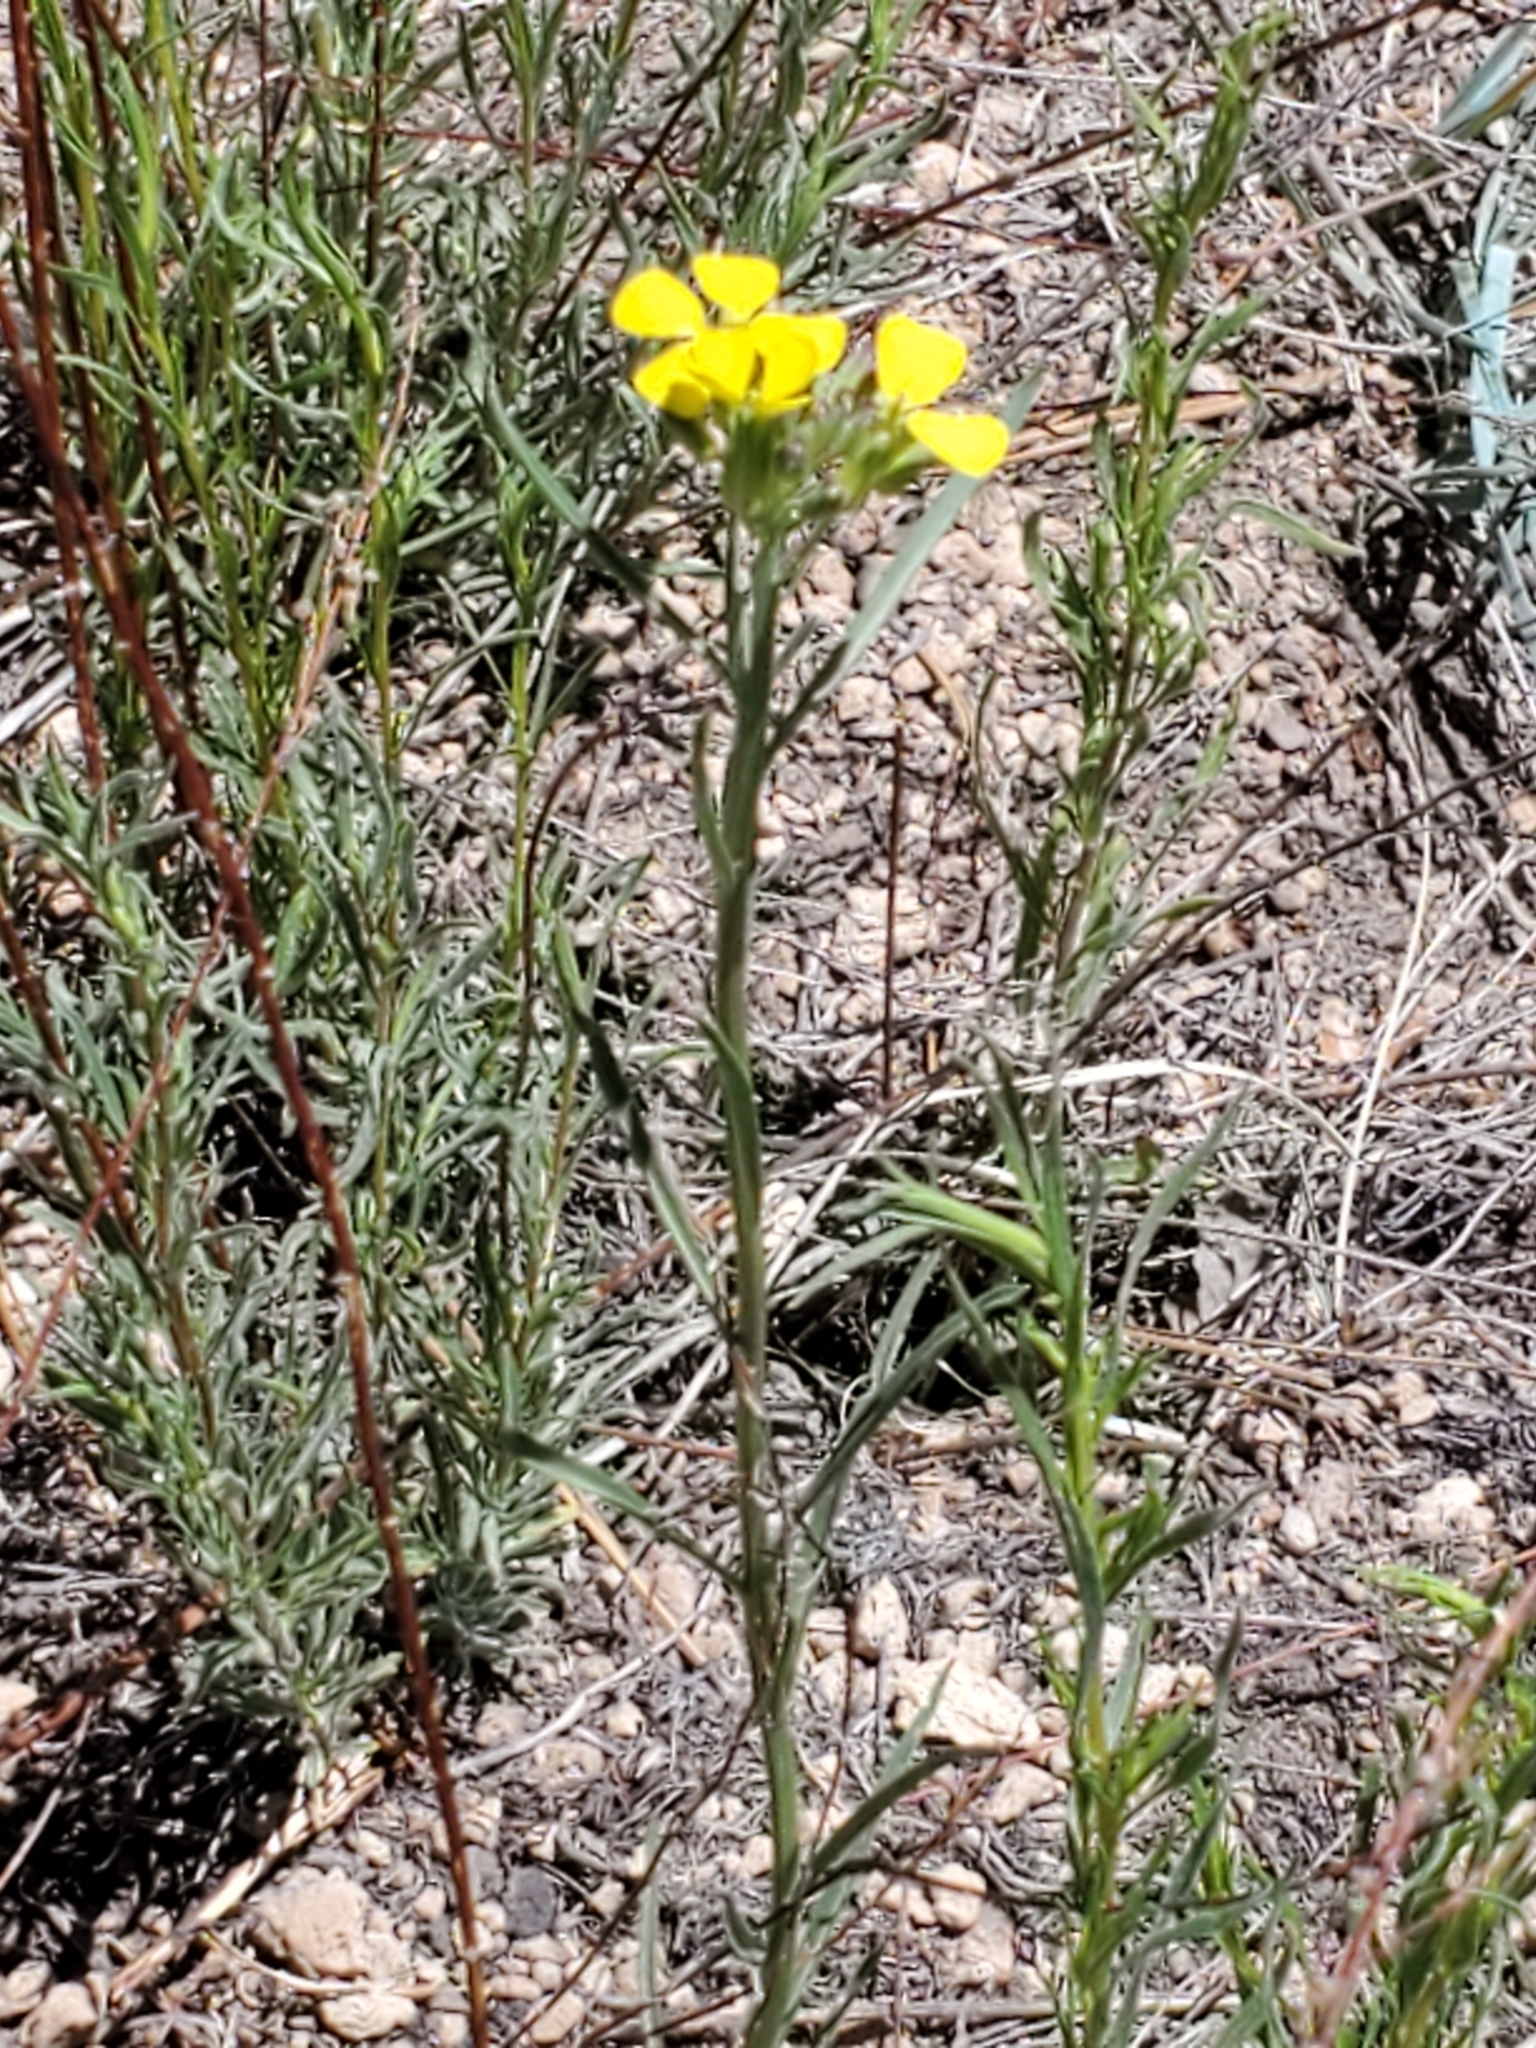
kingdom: Plantae
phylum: Tracheophyta
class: Magnoliopsida
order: Brassicales
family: Brassicaceae
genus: Erysimum
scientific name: Erysimum capitatum
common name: Western wallflower
